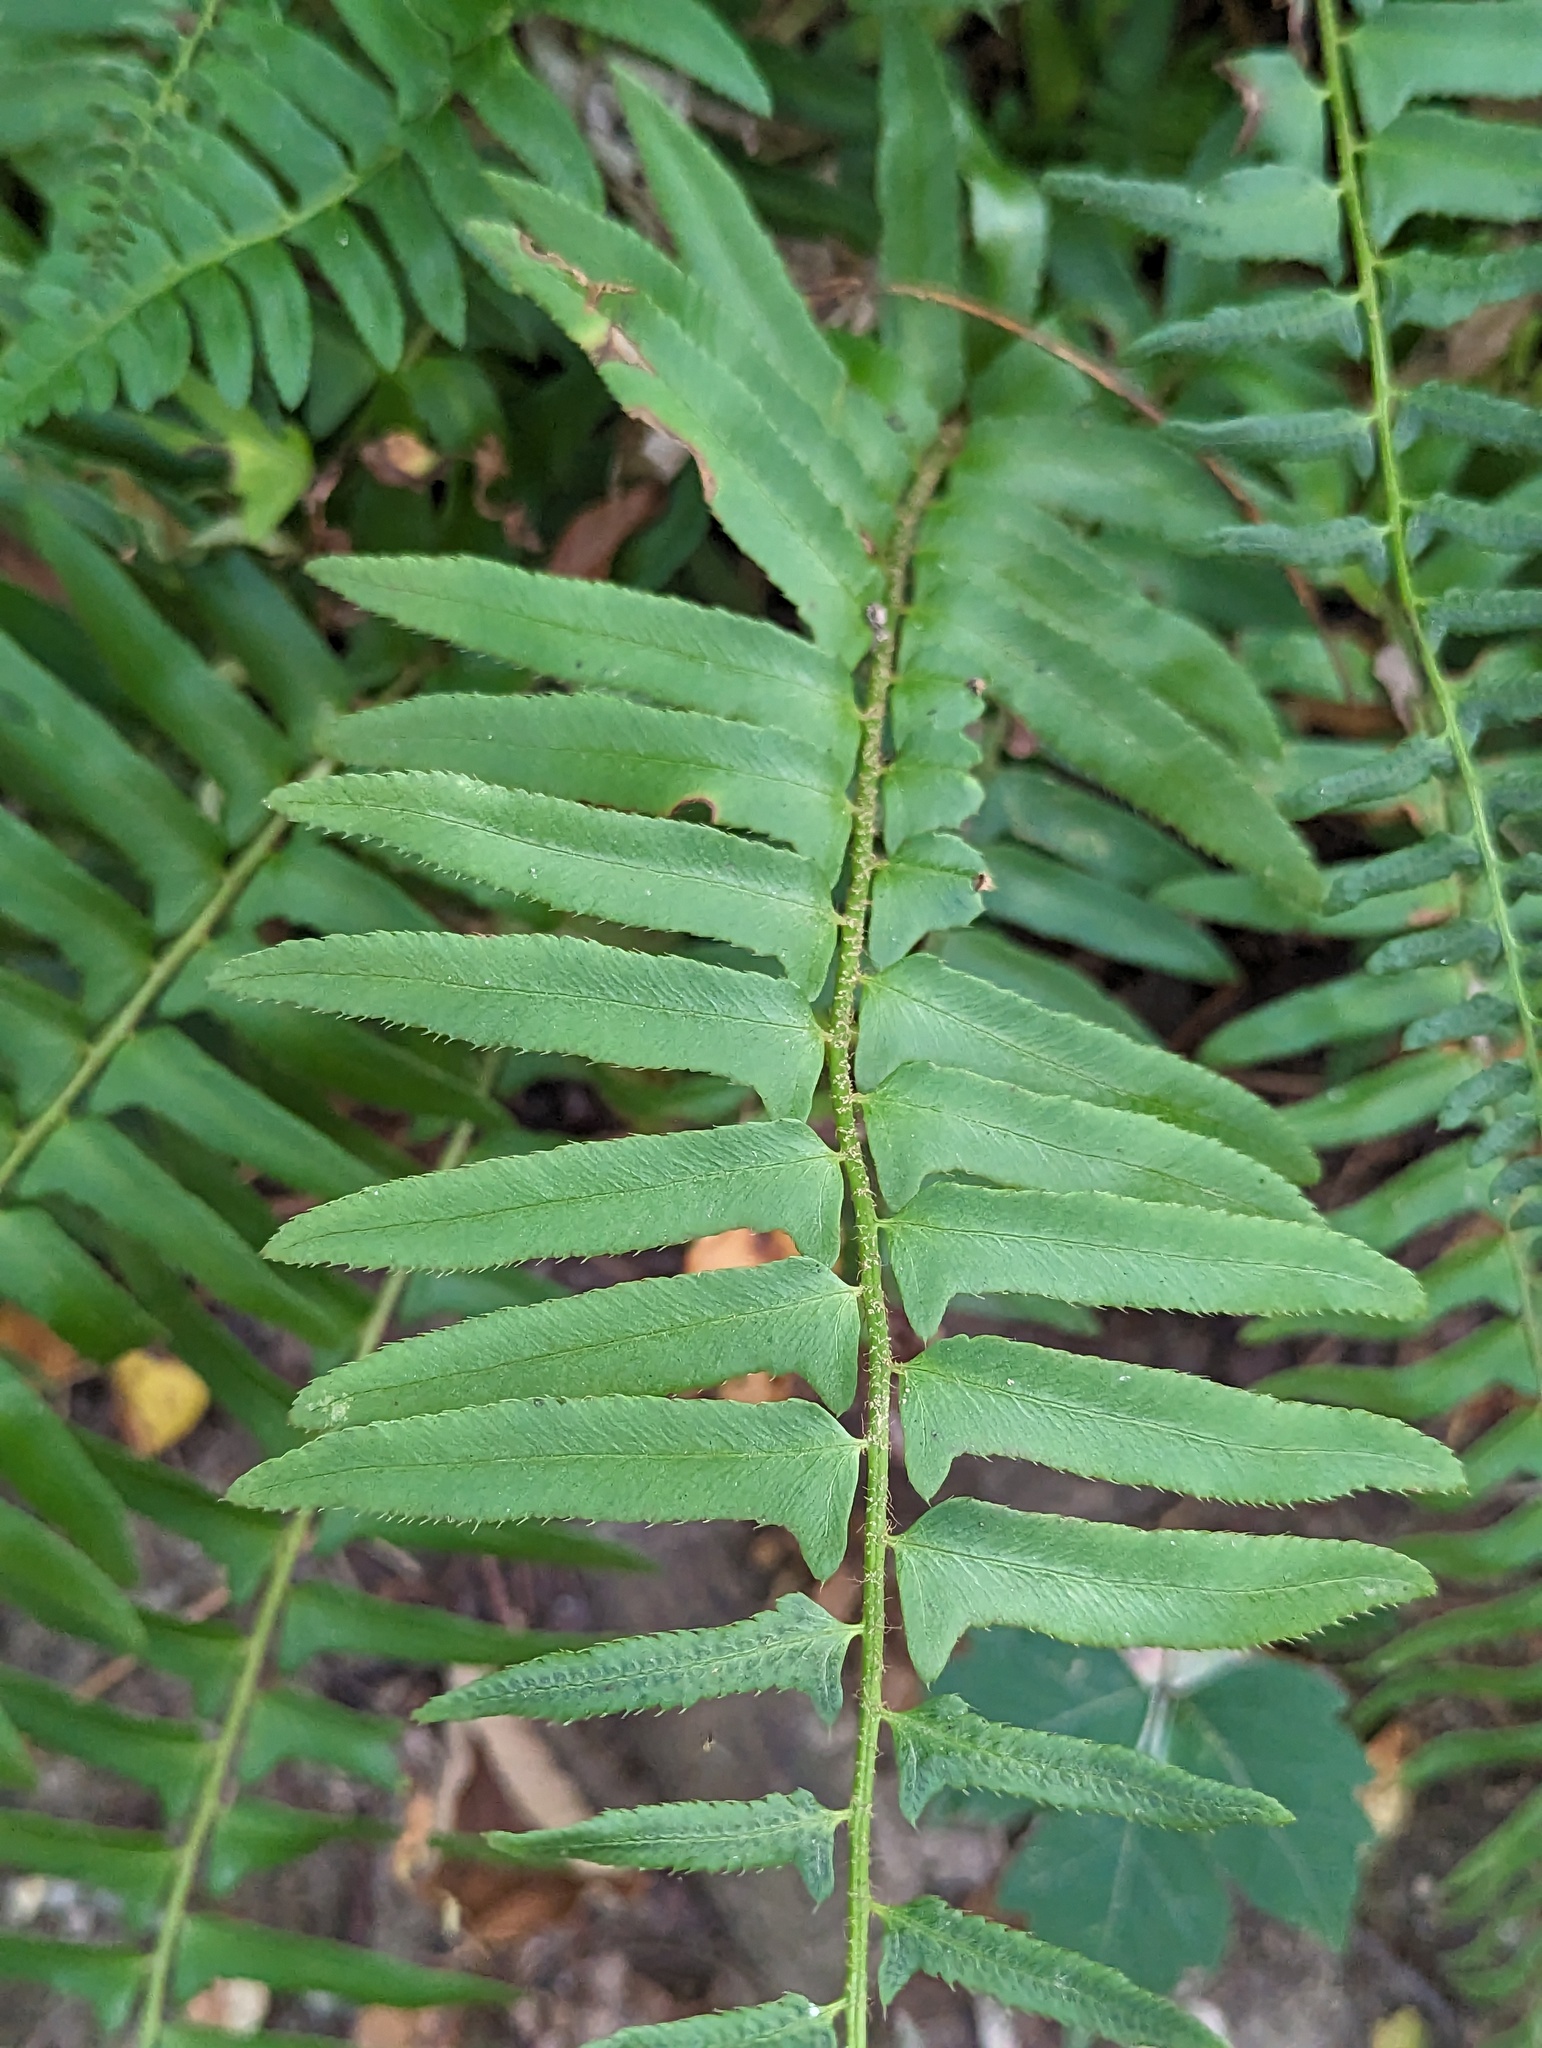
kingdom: Plantae
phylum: Tracheophyta
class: Polypodiopsida
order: Polypodiales
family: Dryopteridaceae
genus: Polystichum
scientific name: Polystichum acrostichoides
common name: Christmas fern
